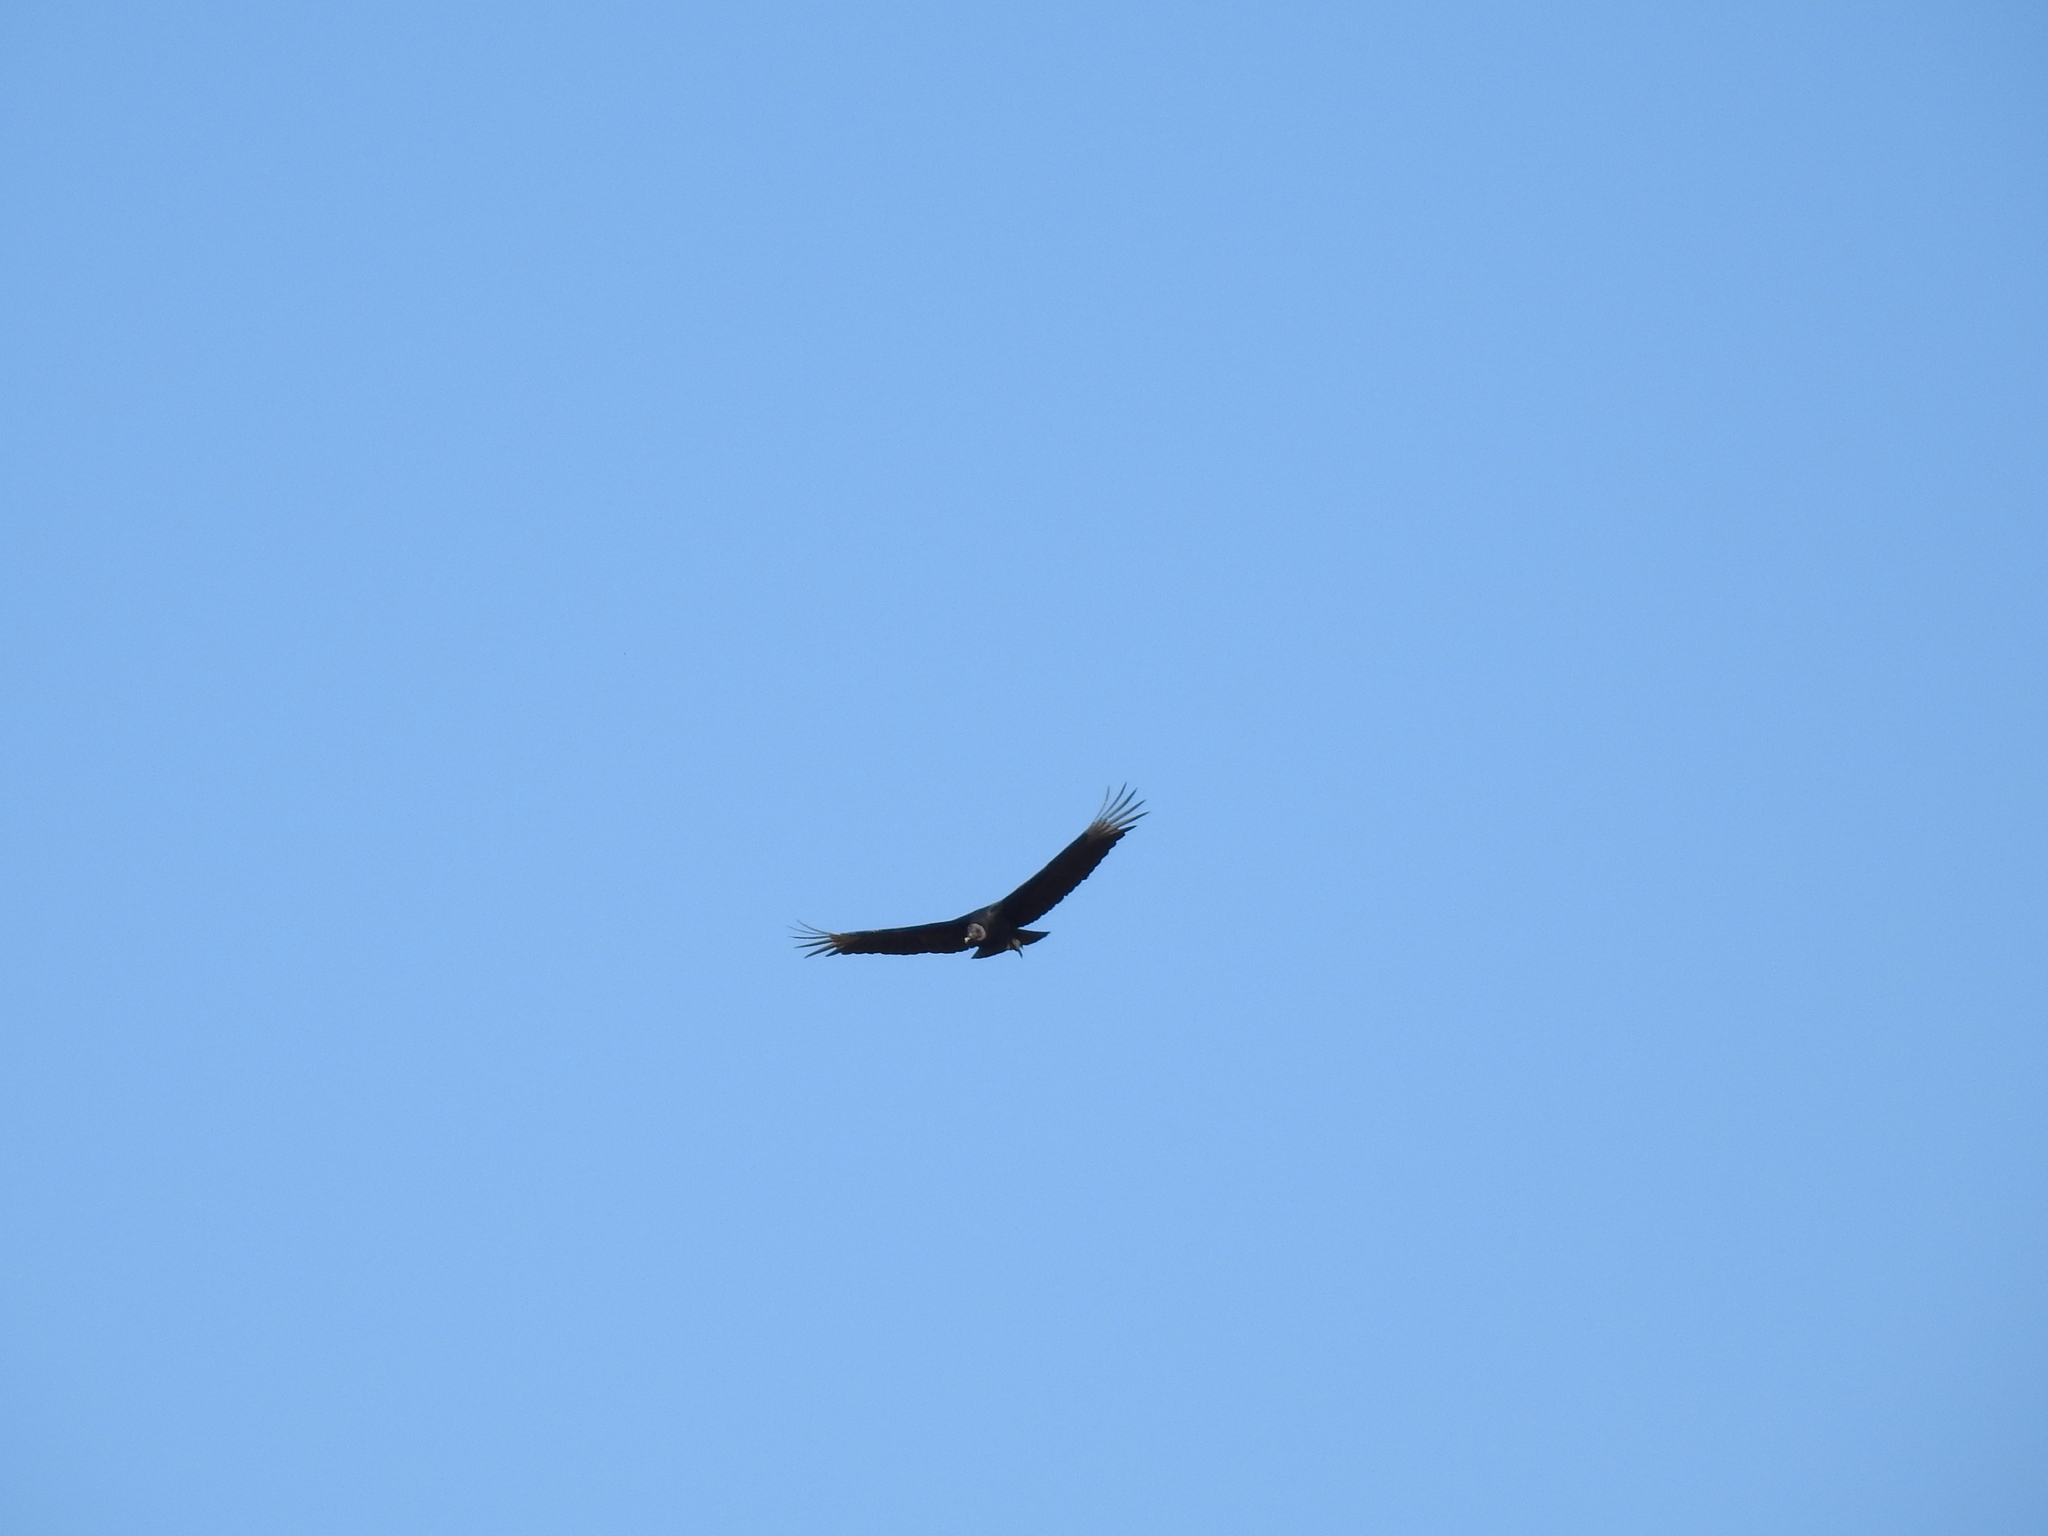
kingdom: Animalia
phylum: Chordata
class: Aves
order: Accipitriformes
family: Cathartidae
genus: Coragyps
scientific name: Coragyps atratus
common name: Black vulture
